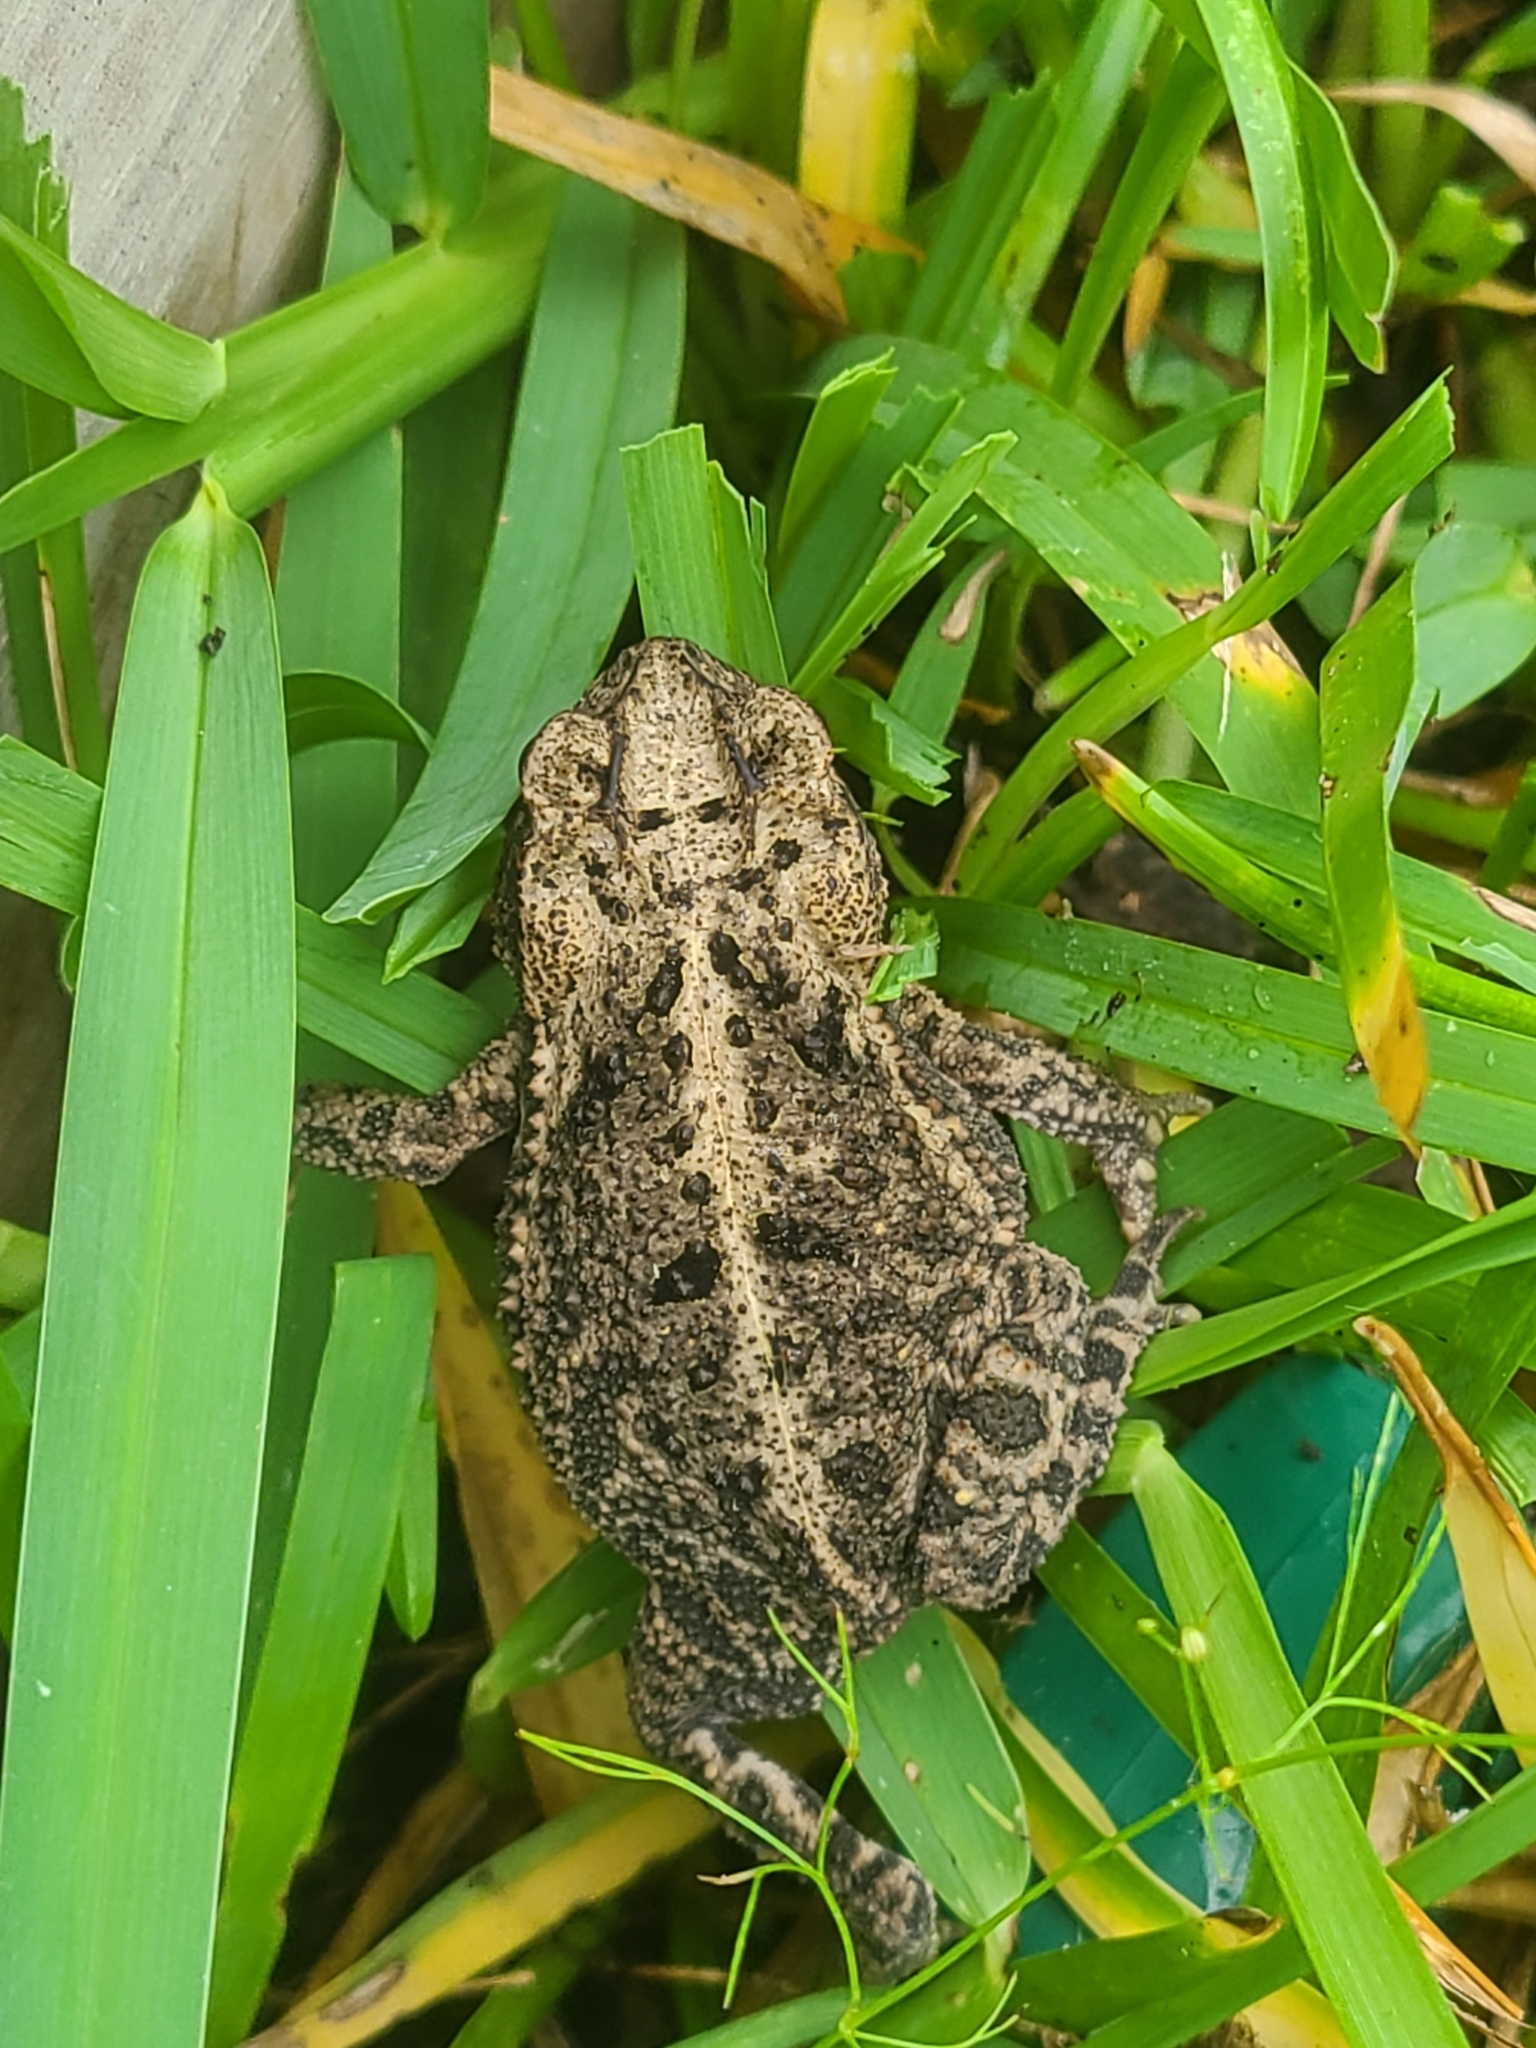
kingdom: Animalia
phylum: Chordata
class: Amphibia
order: Anura
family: Bufonidae
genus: Incilius
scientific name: Incilius nebulifer
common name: Gulf coast toad
